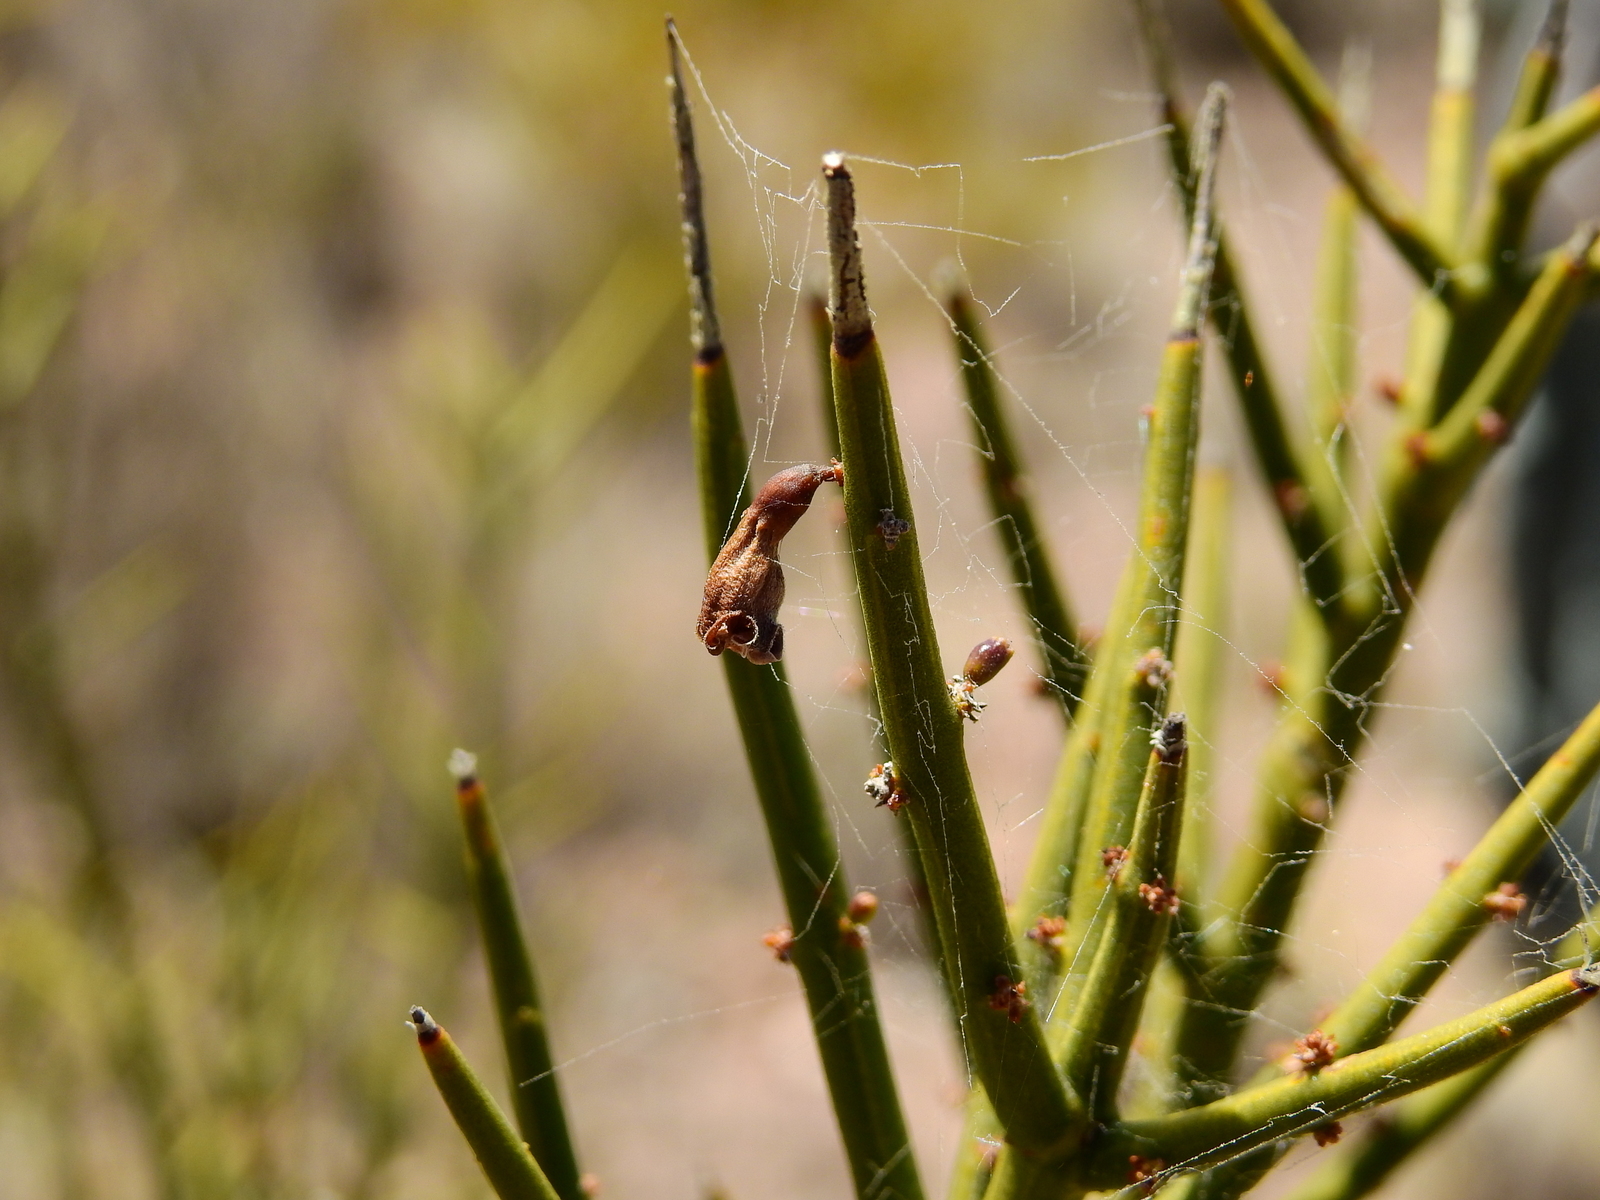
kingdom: Plantae
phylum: Tracheophyta
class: Magnoliopsida
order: Lamiales
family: Plantaginaceae
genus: Monttea
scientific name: Monttea aphylla
